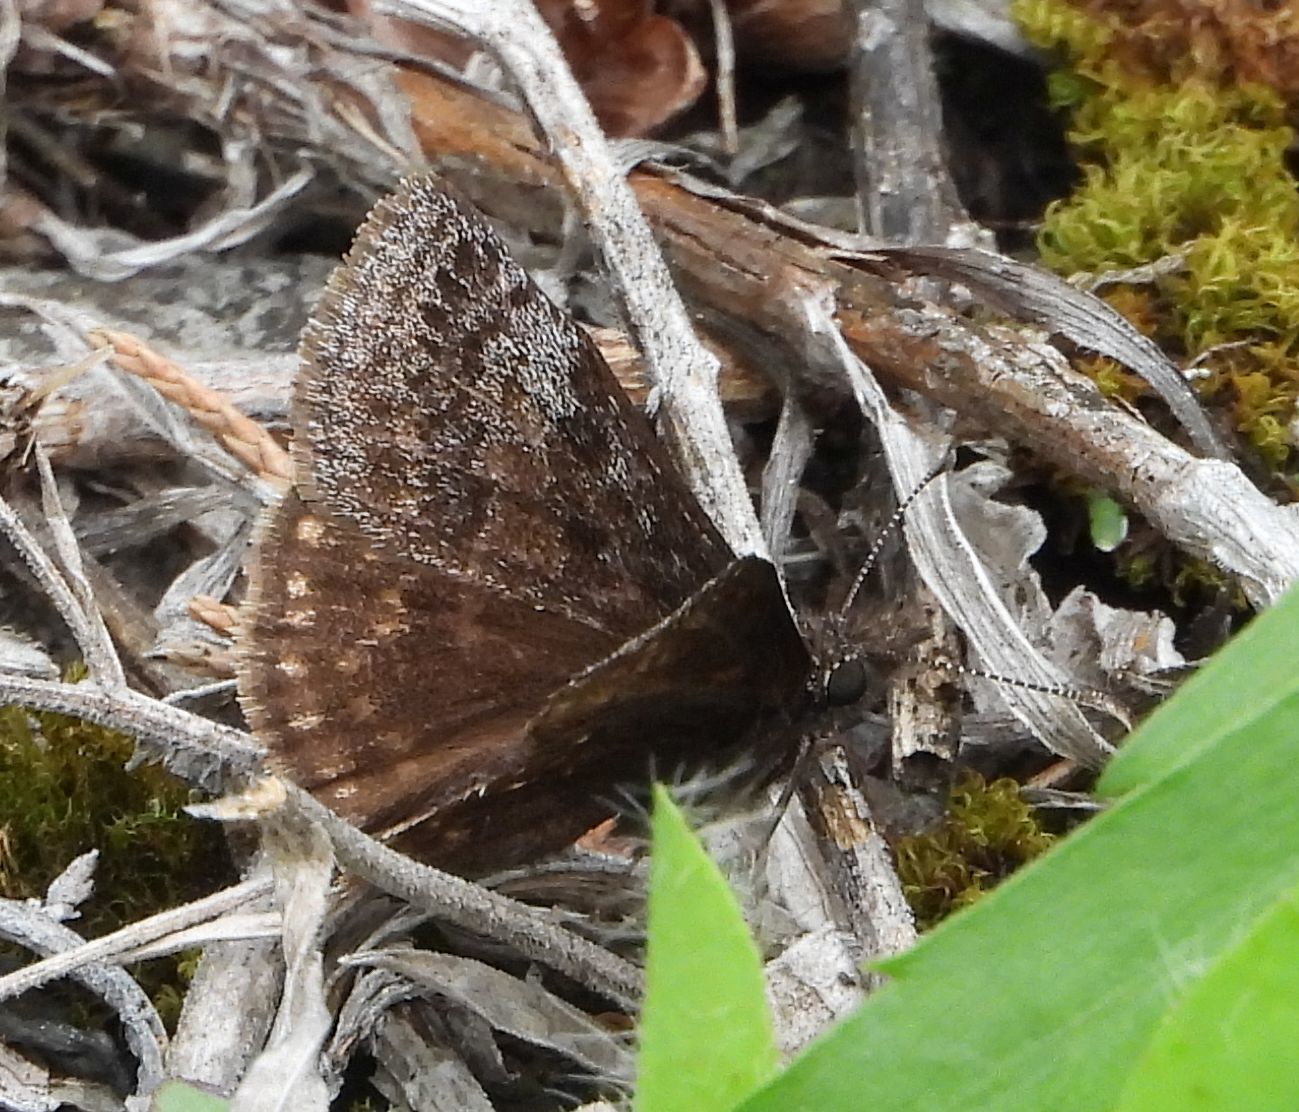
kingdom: Animalia
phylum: Arthropoda
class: Insecta
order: Lepidoptera
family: Hesperiidae
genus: Erynnis
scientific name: Erynnis icelus
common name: Dreamy duskywing
